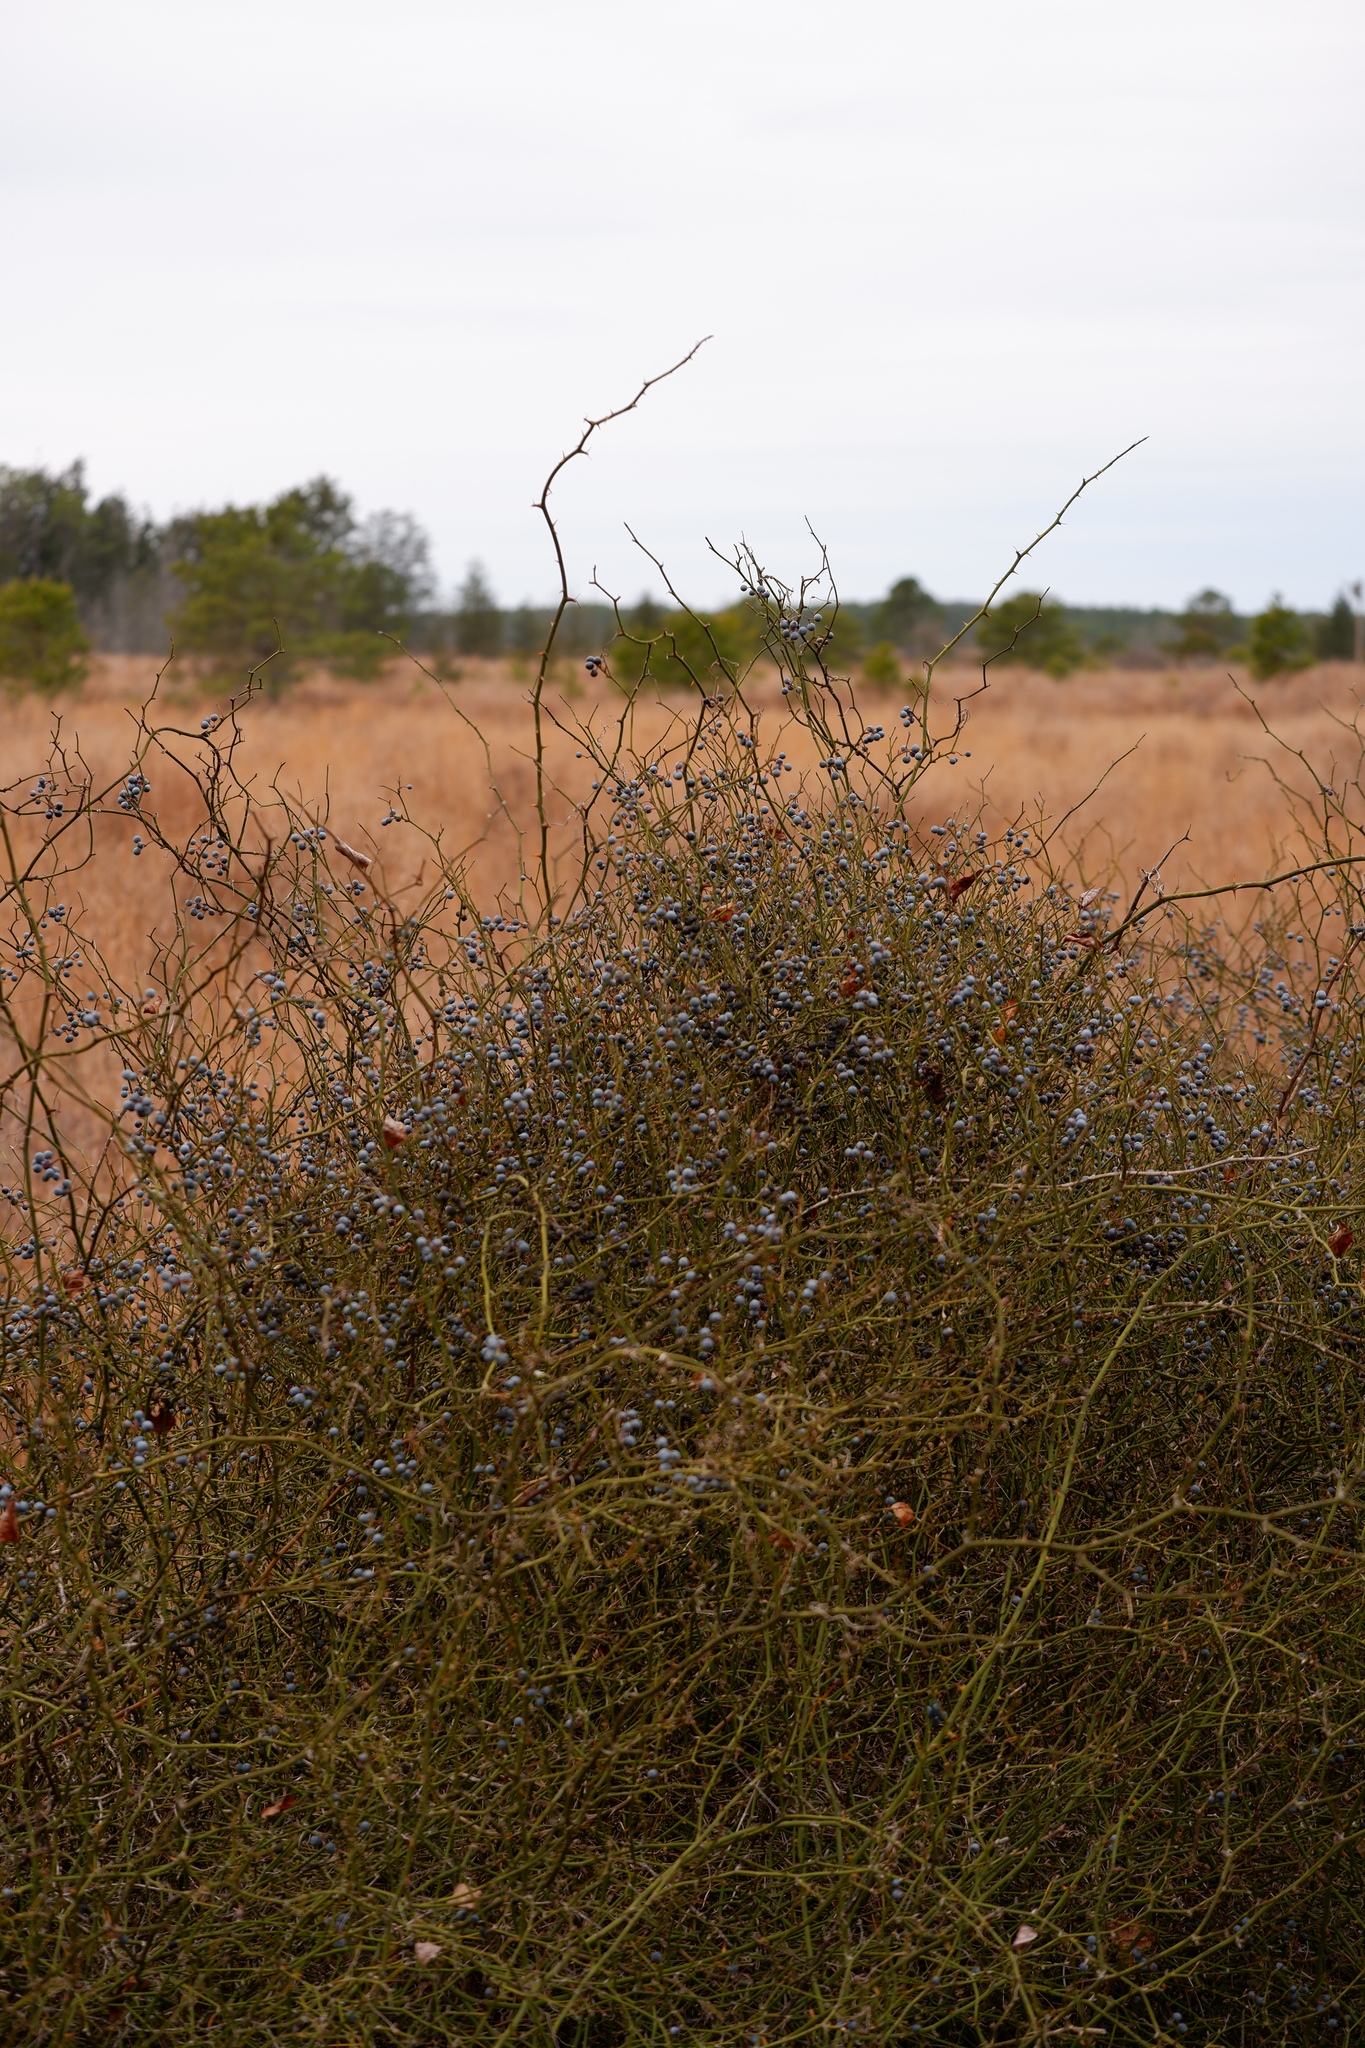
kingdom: Plantae
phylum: Tracheophyta
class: Liliopsida
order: Liliales
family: Smilacaceae
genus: Smilax
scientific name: Smilax rotundifolia
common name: Bullbriar
